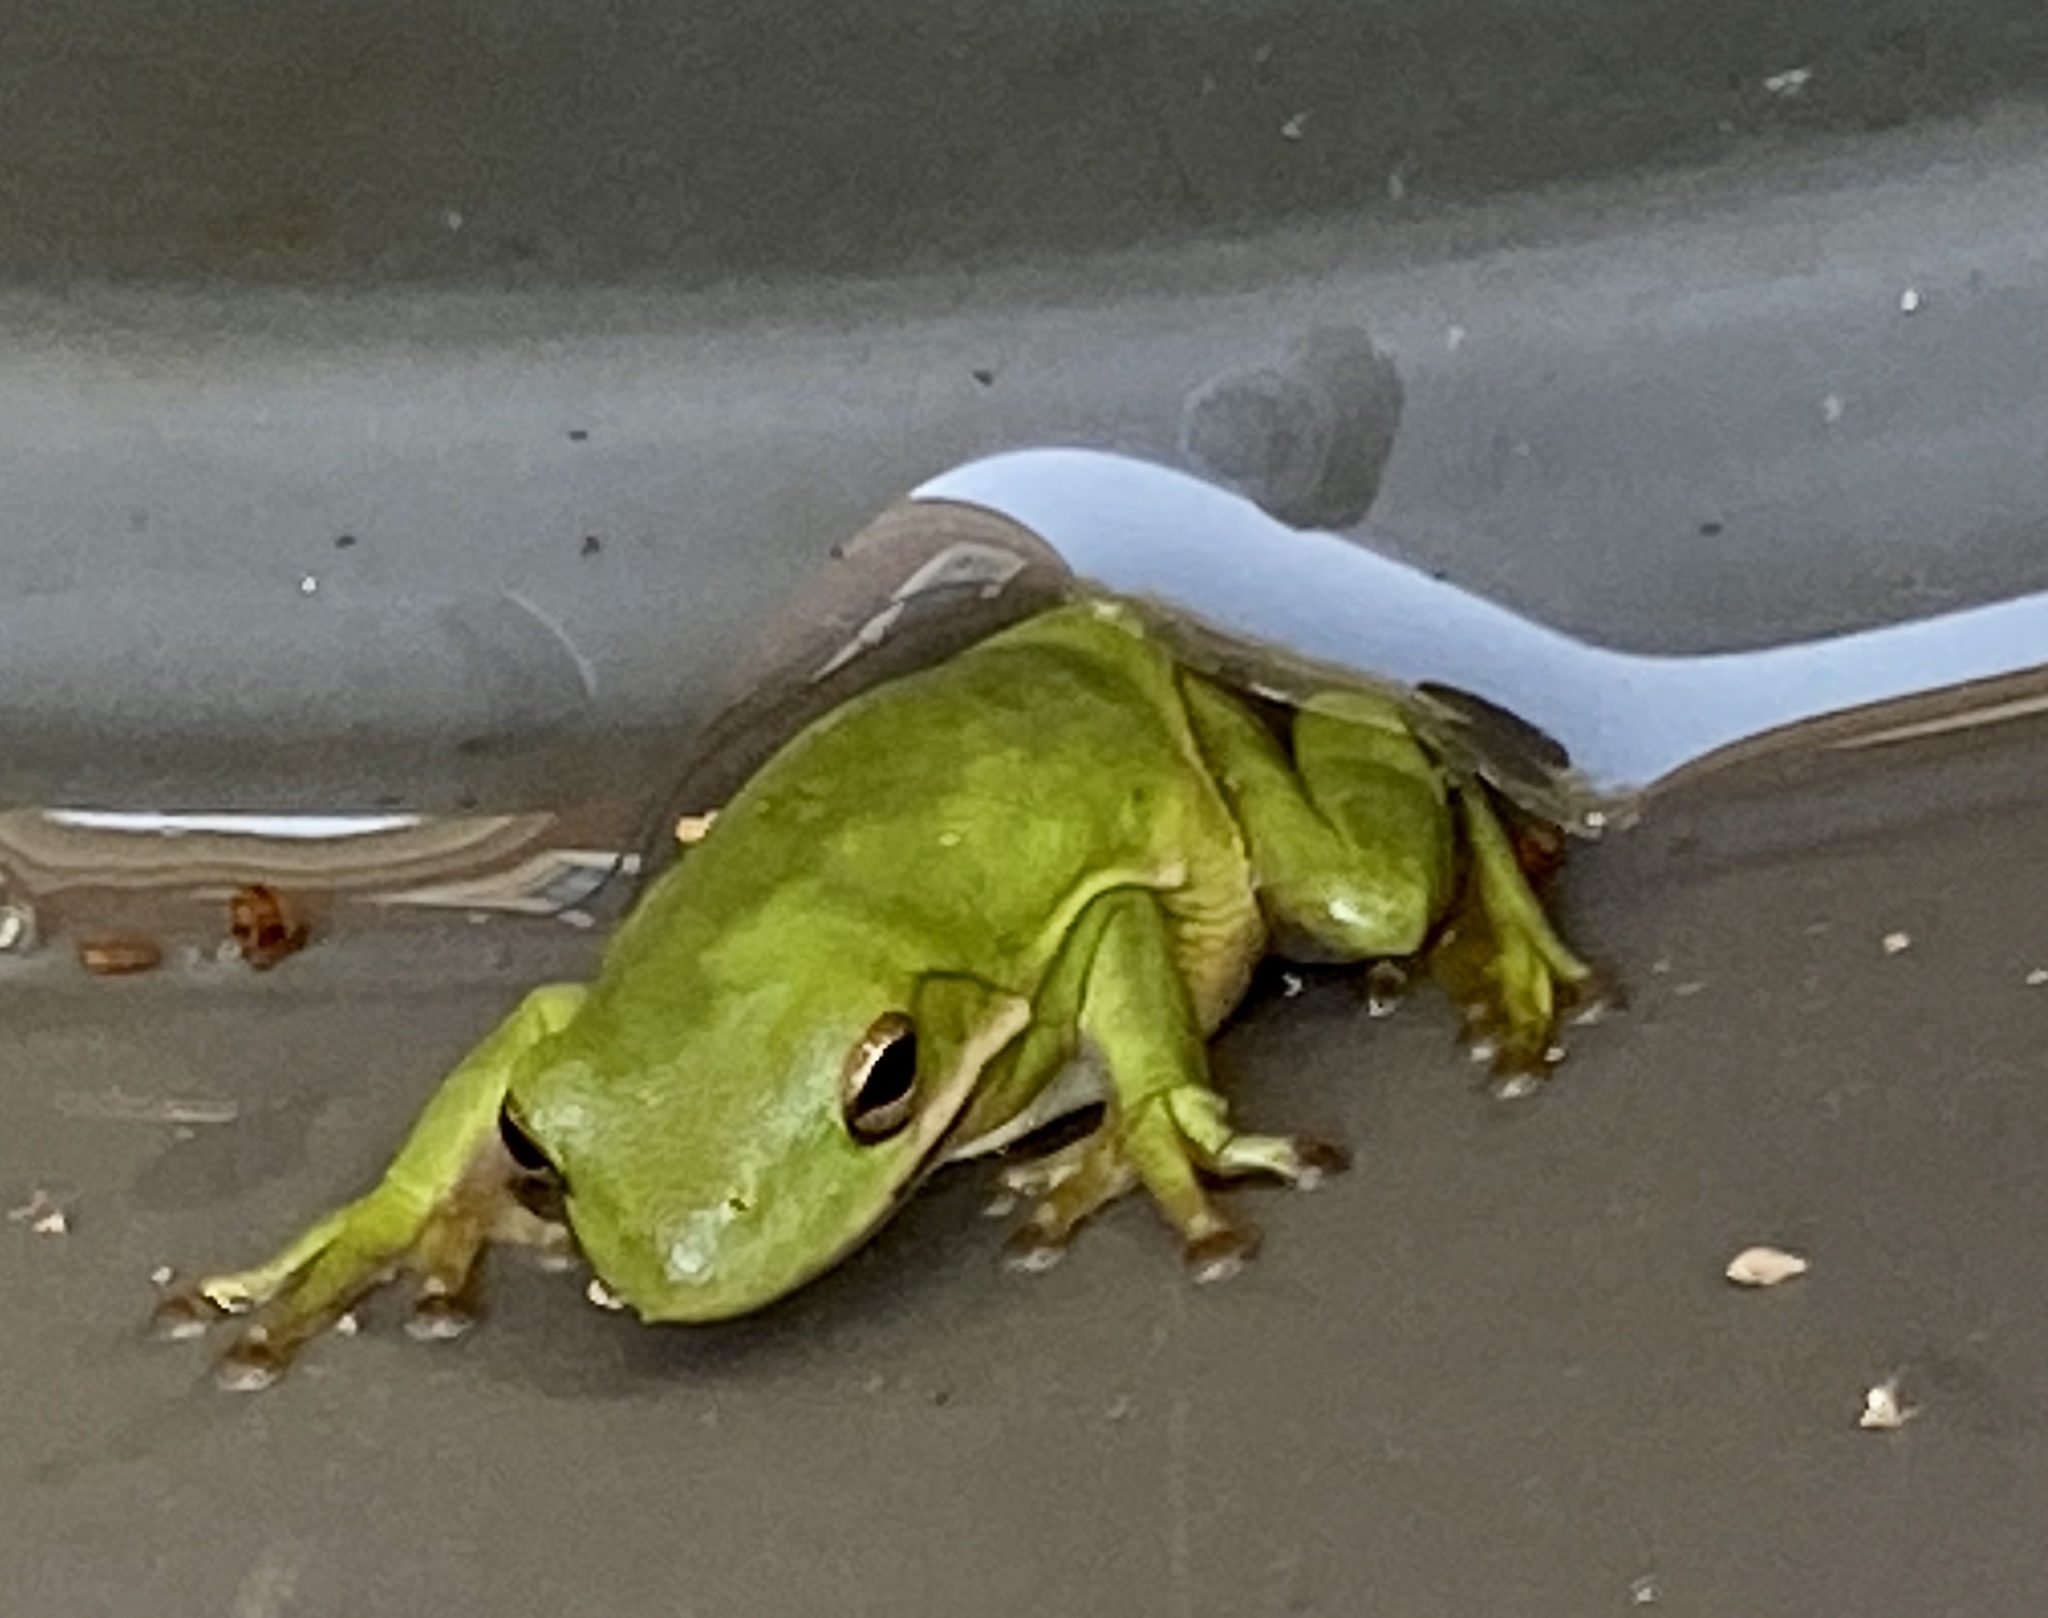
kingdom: Animalia
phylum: Chordata
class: Amphibia
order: Anura
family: Hylidae
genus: Dryophytes
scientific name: Dryophytes cinereus
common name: Green treefrog
